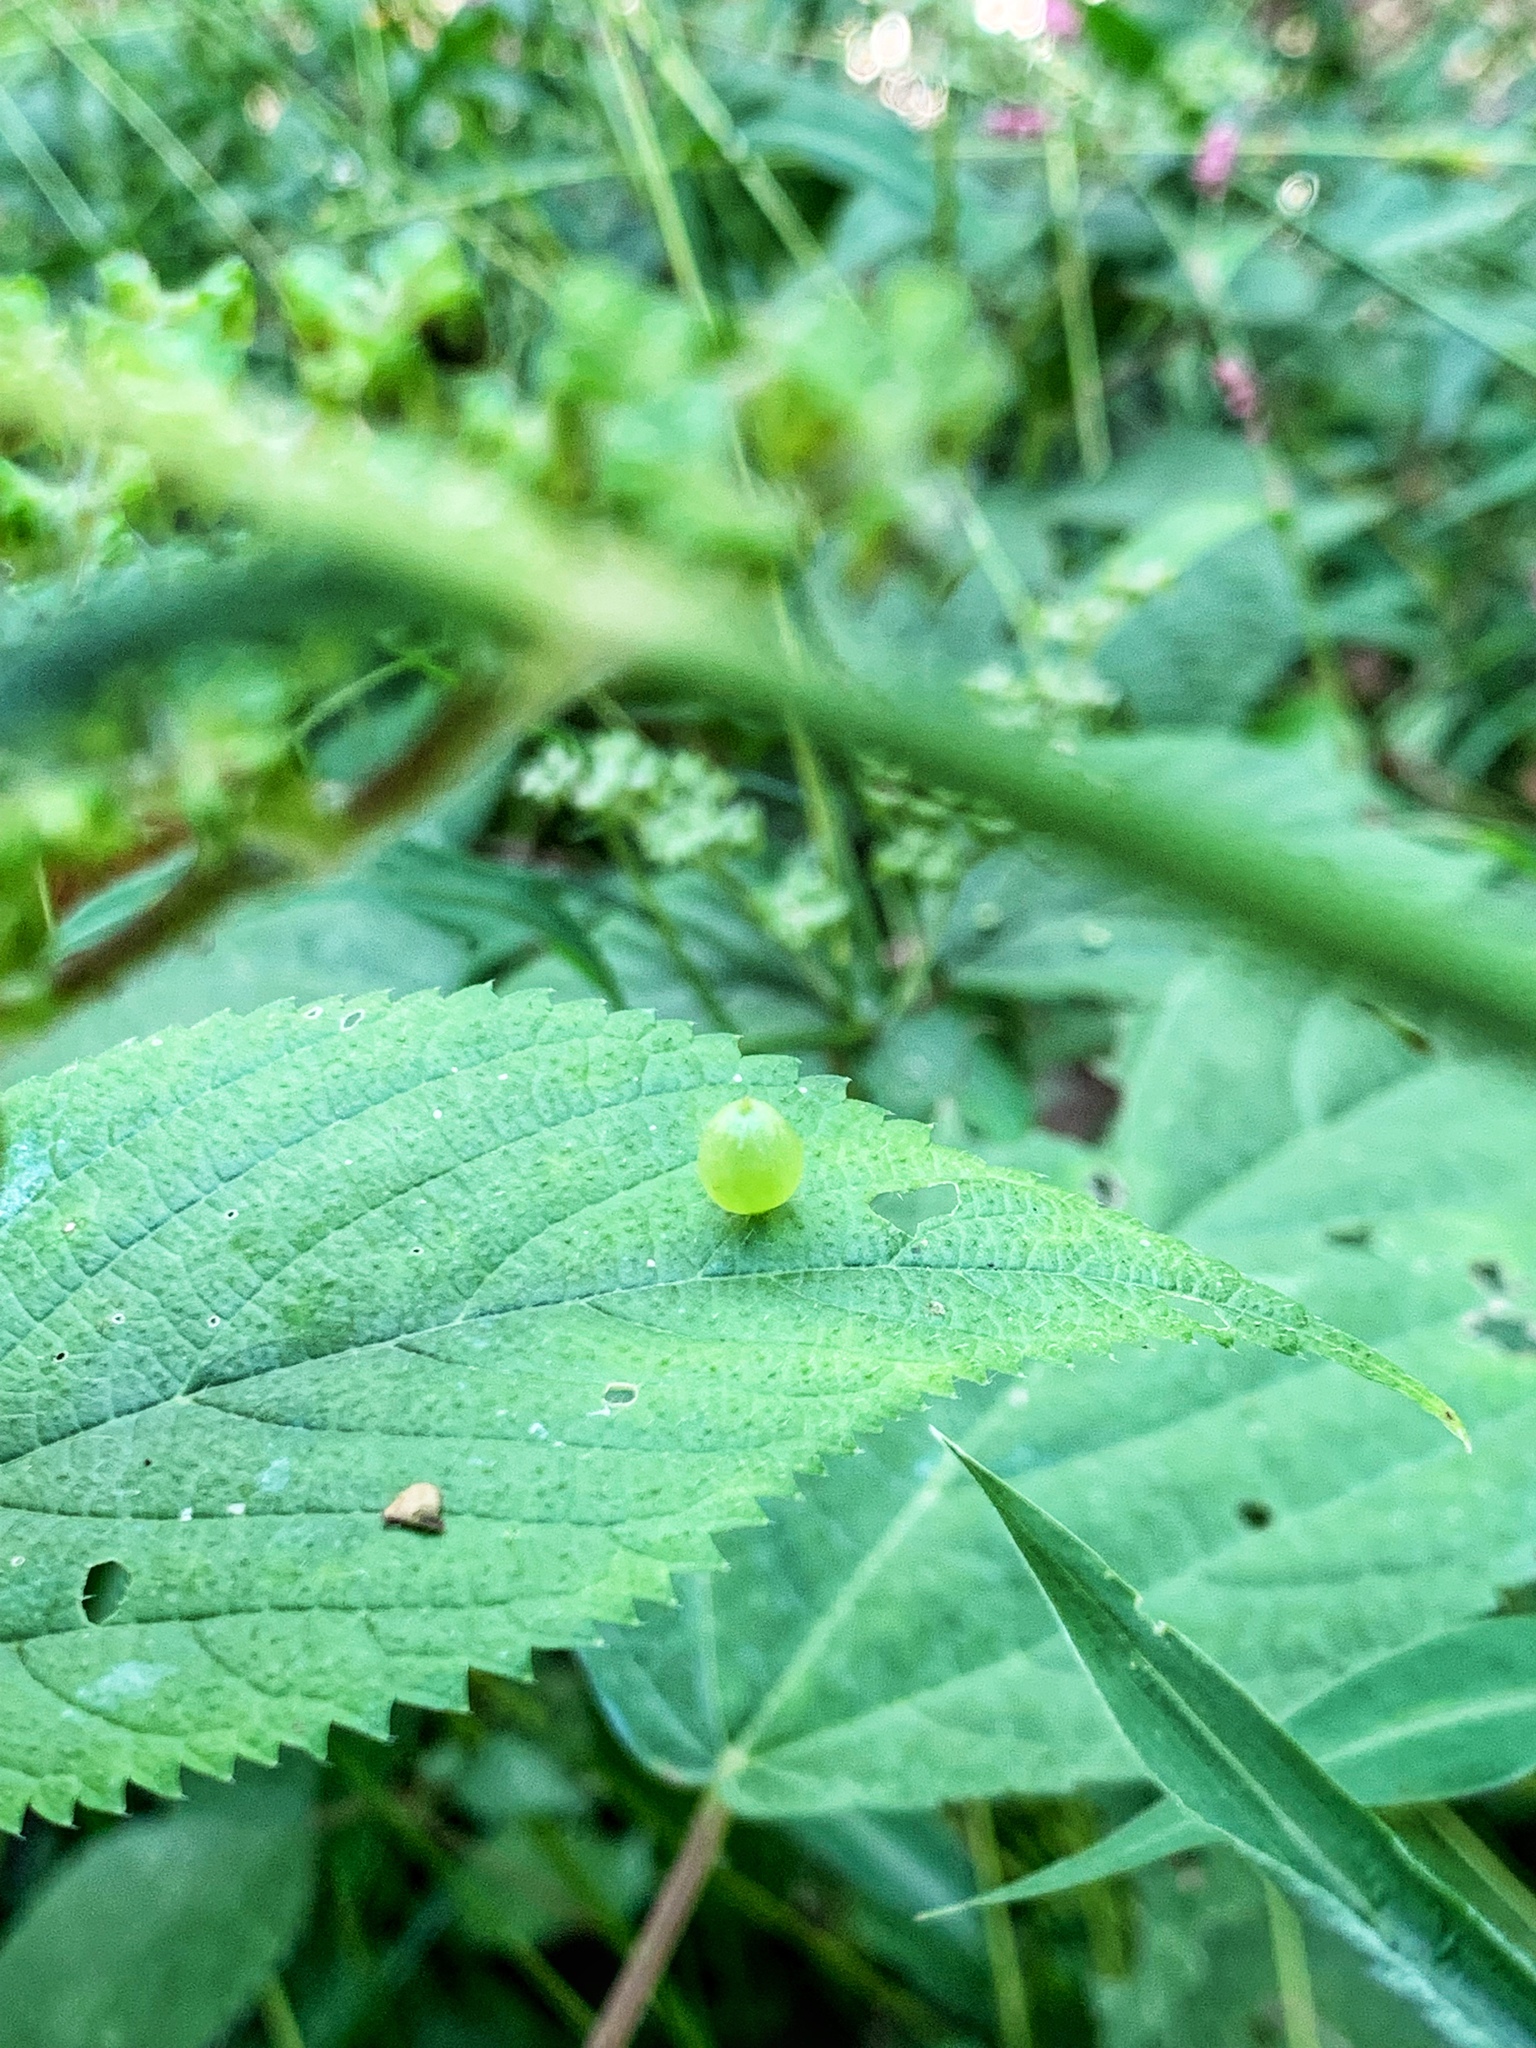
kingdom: Plantae
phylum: Tracheophyta
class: Magnoliopsida
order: Rosales
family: Urticaceae
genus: Laportea
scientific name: Laportea canadensis
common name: Canada nettle
